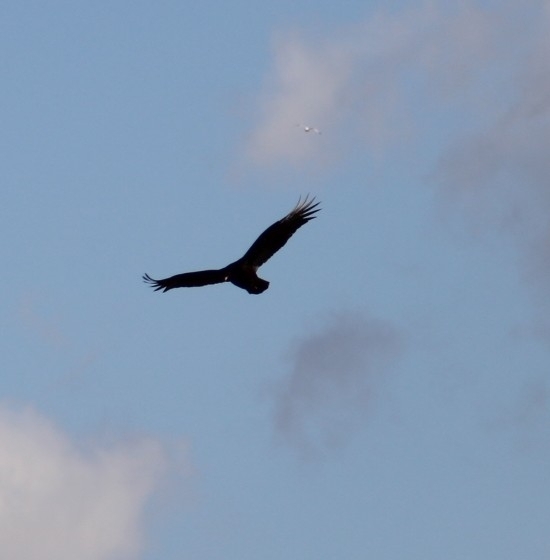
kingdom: Animalia
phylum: Chordata
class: Aves
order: Accipitriformes
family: Cathartidae
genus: Cathartes
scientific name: Cathartes aura
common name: Turkey vulture
